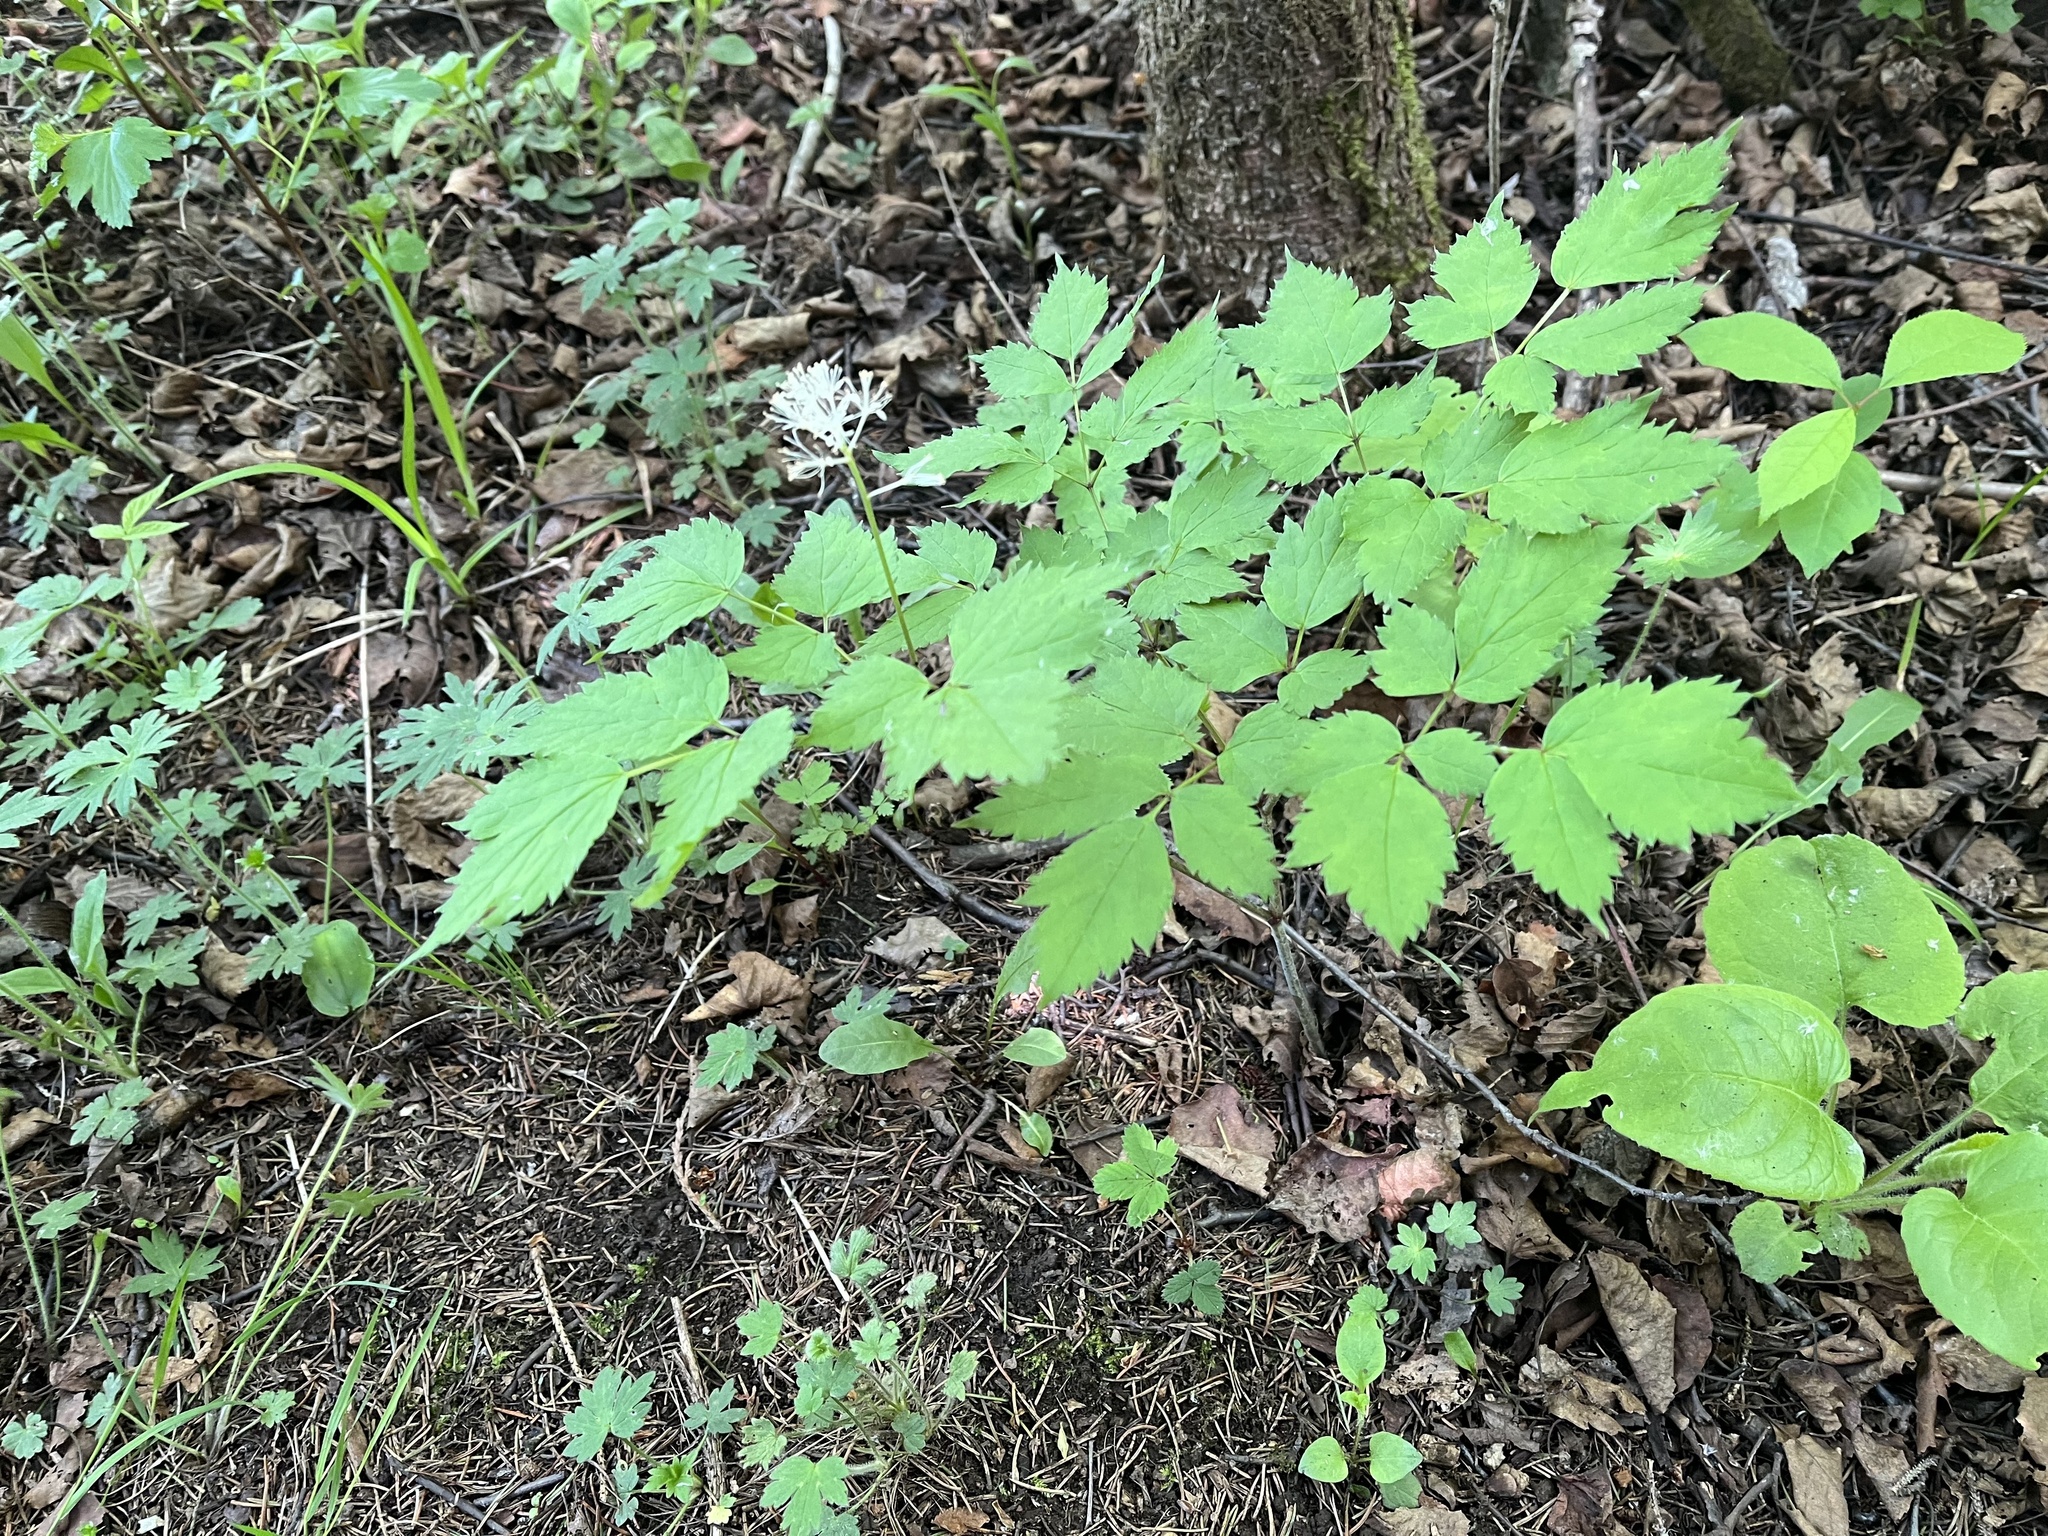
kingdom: Plantae
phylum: Tracheophyta
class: Magnoliopsida
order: Ranunculales
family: Ranunculaceae
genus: Actaea
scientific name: Actaea rubra
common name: Red baneberry
